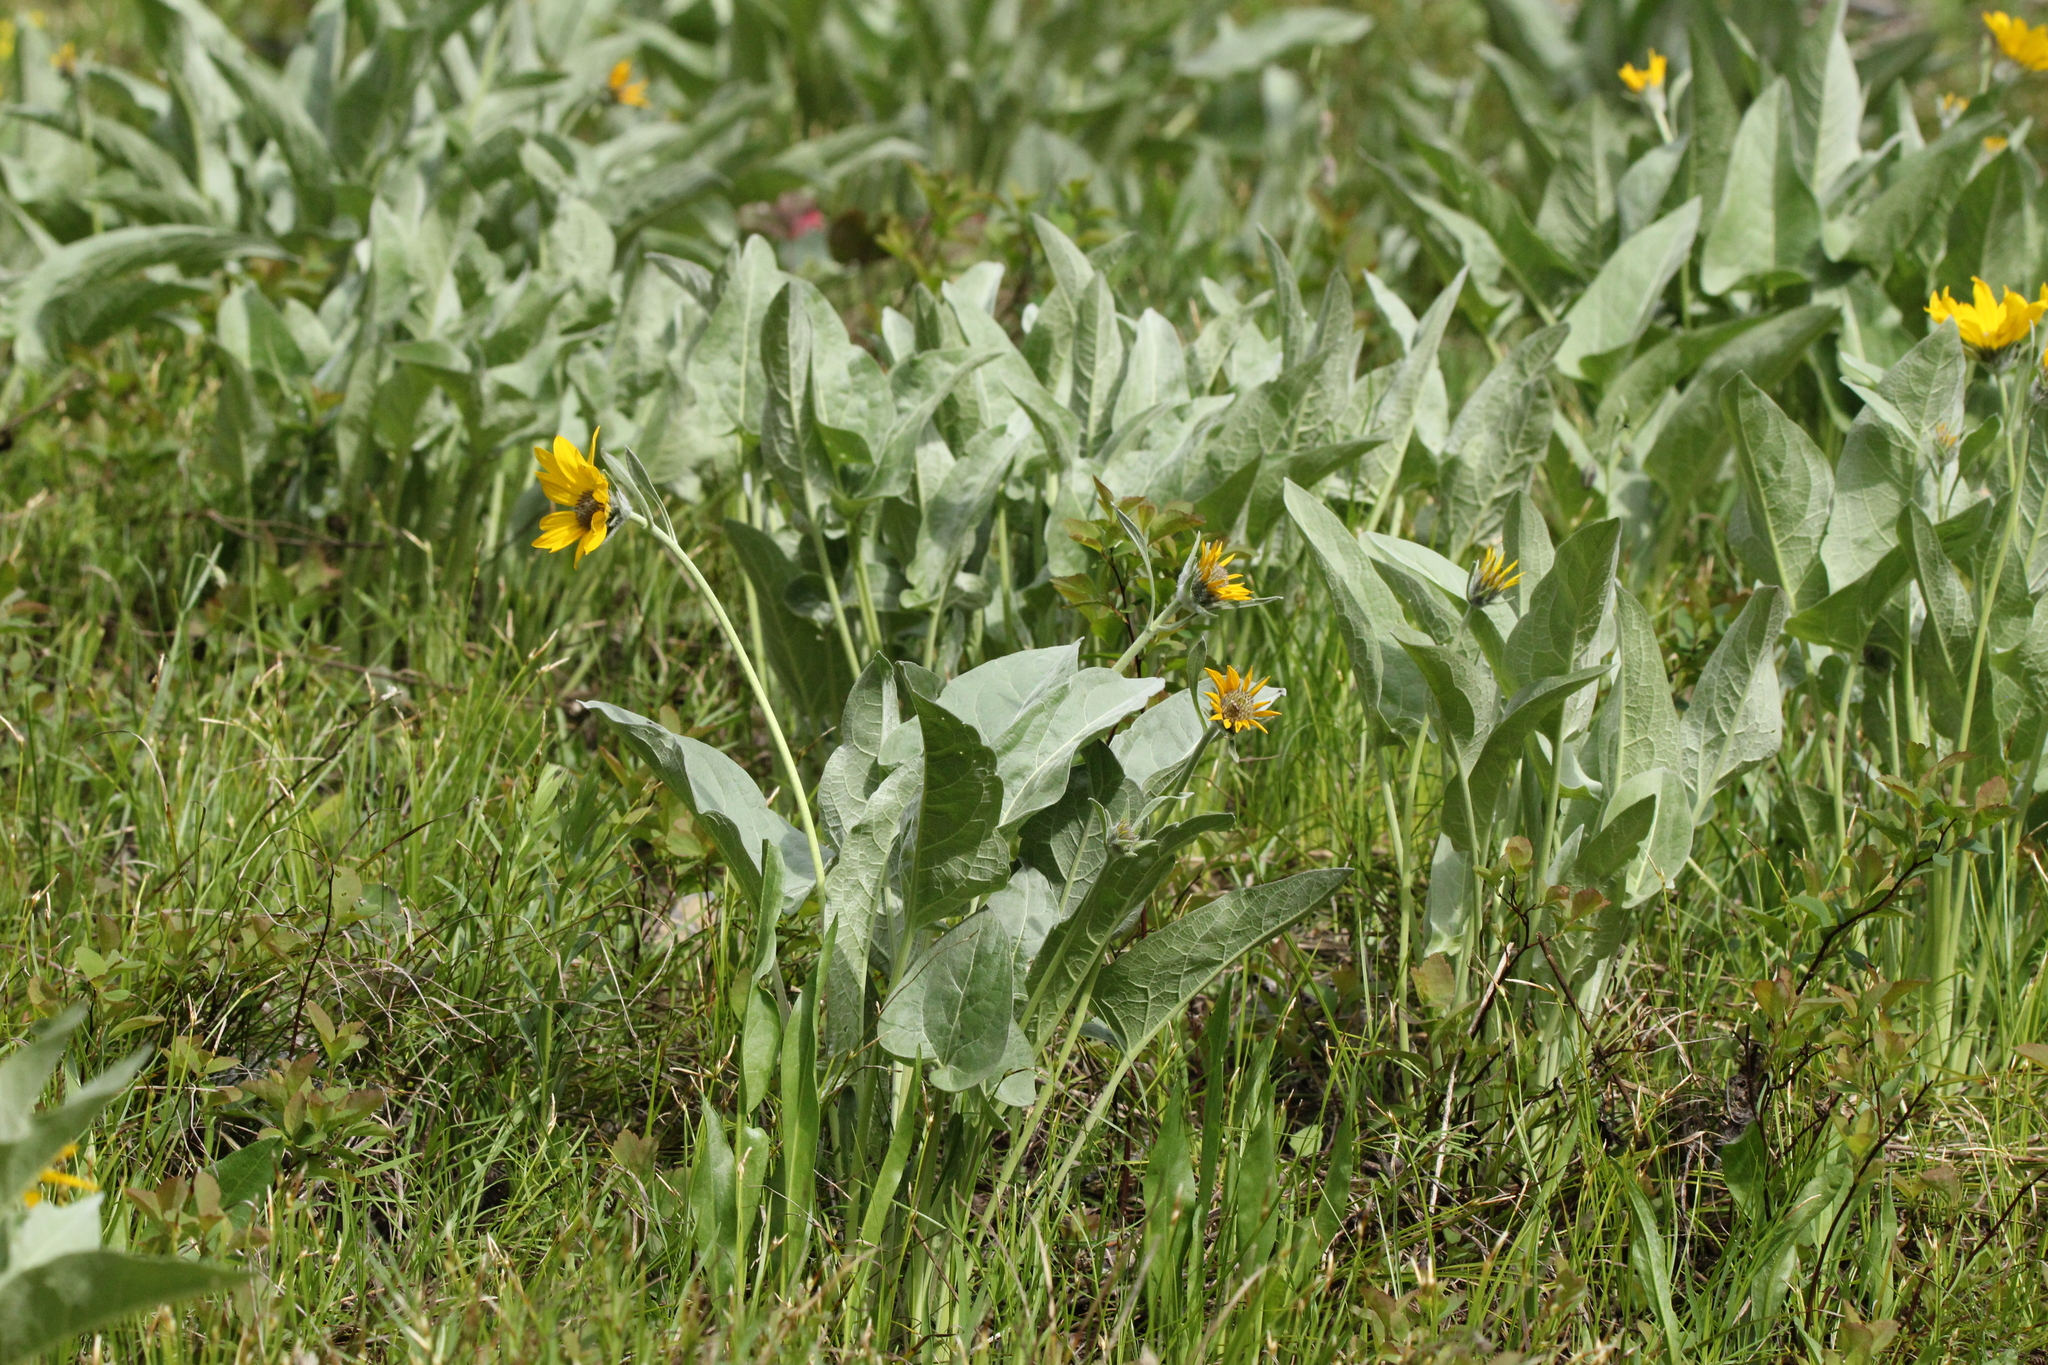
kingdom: Plantae
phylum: Tracheophyta
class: Magnoliopsida
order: Asterales
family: Asteraceae
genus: Wyethia
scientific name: Wyethia sagittata
